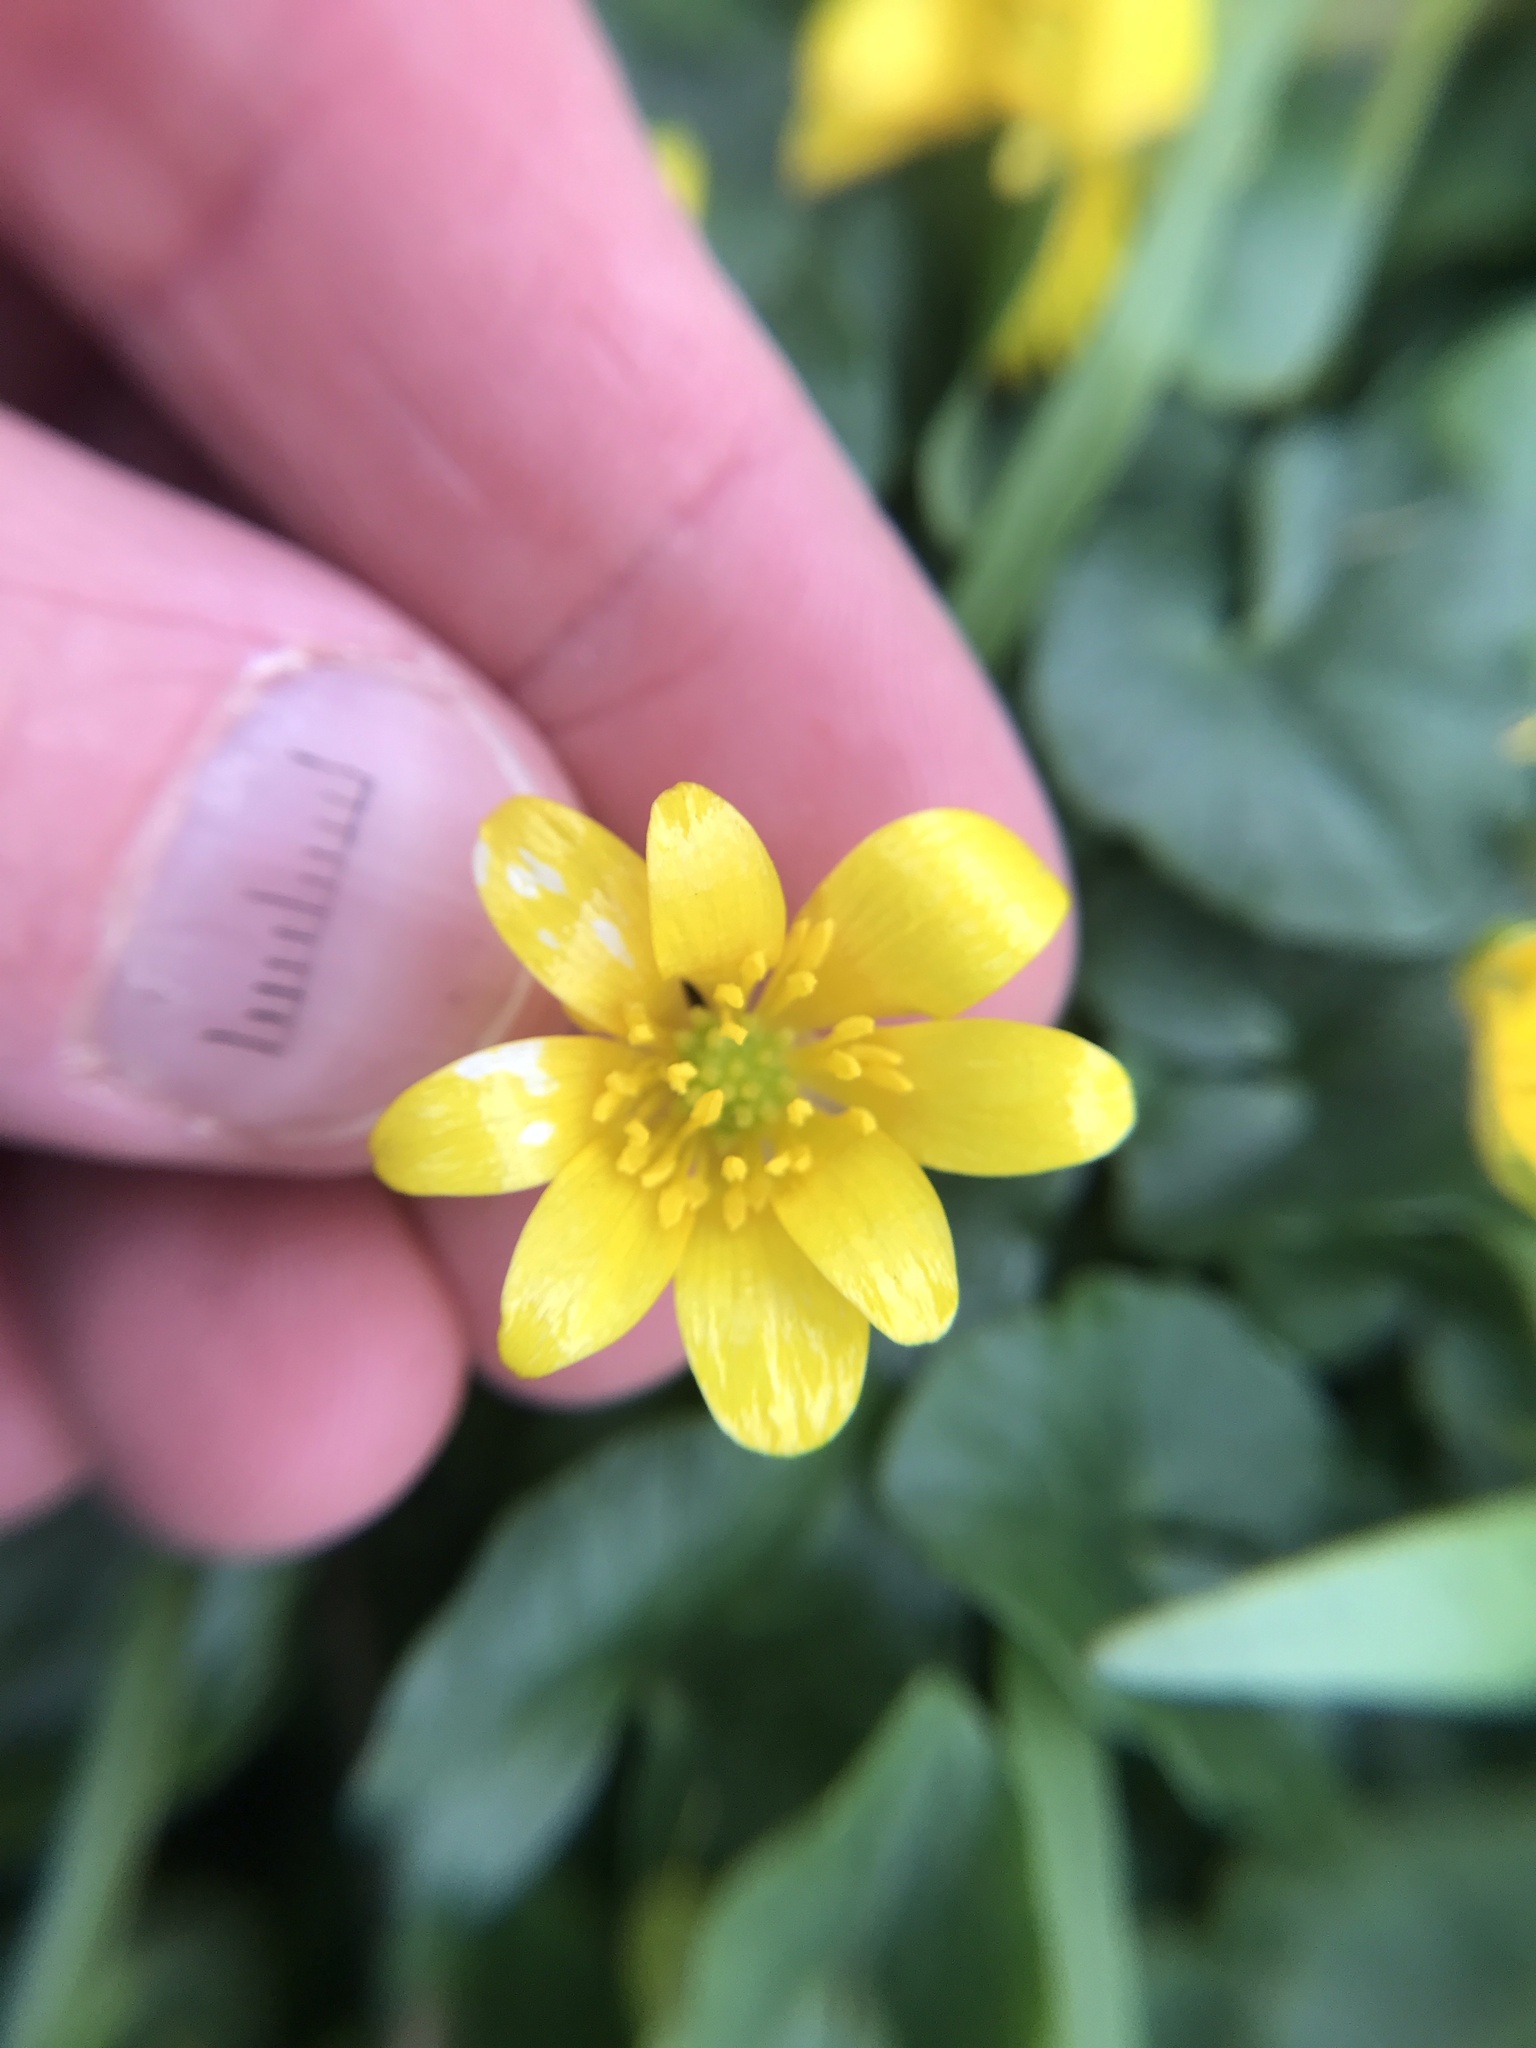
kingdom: Plantae
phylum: Tracheophyta
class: Magnoliopsida
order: Ranunculales
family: Ranunculaceae
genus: Ficaria
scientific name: Ficaria verna
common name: Lesser celandine
